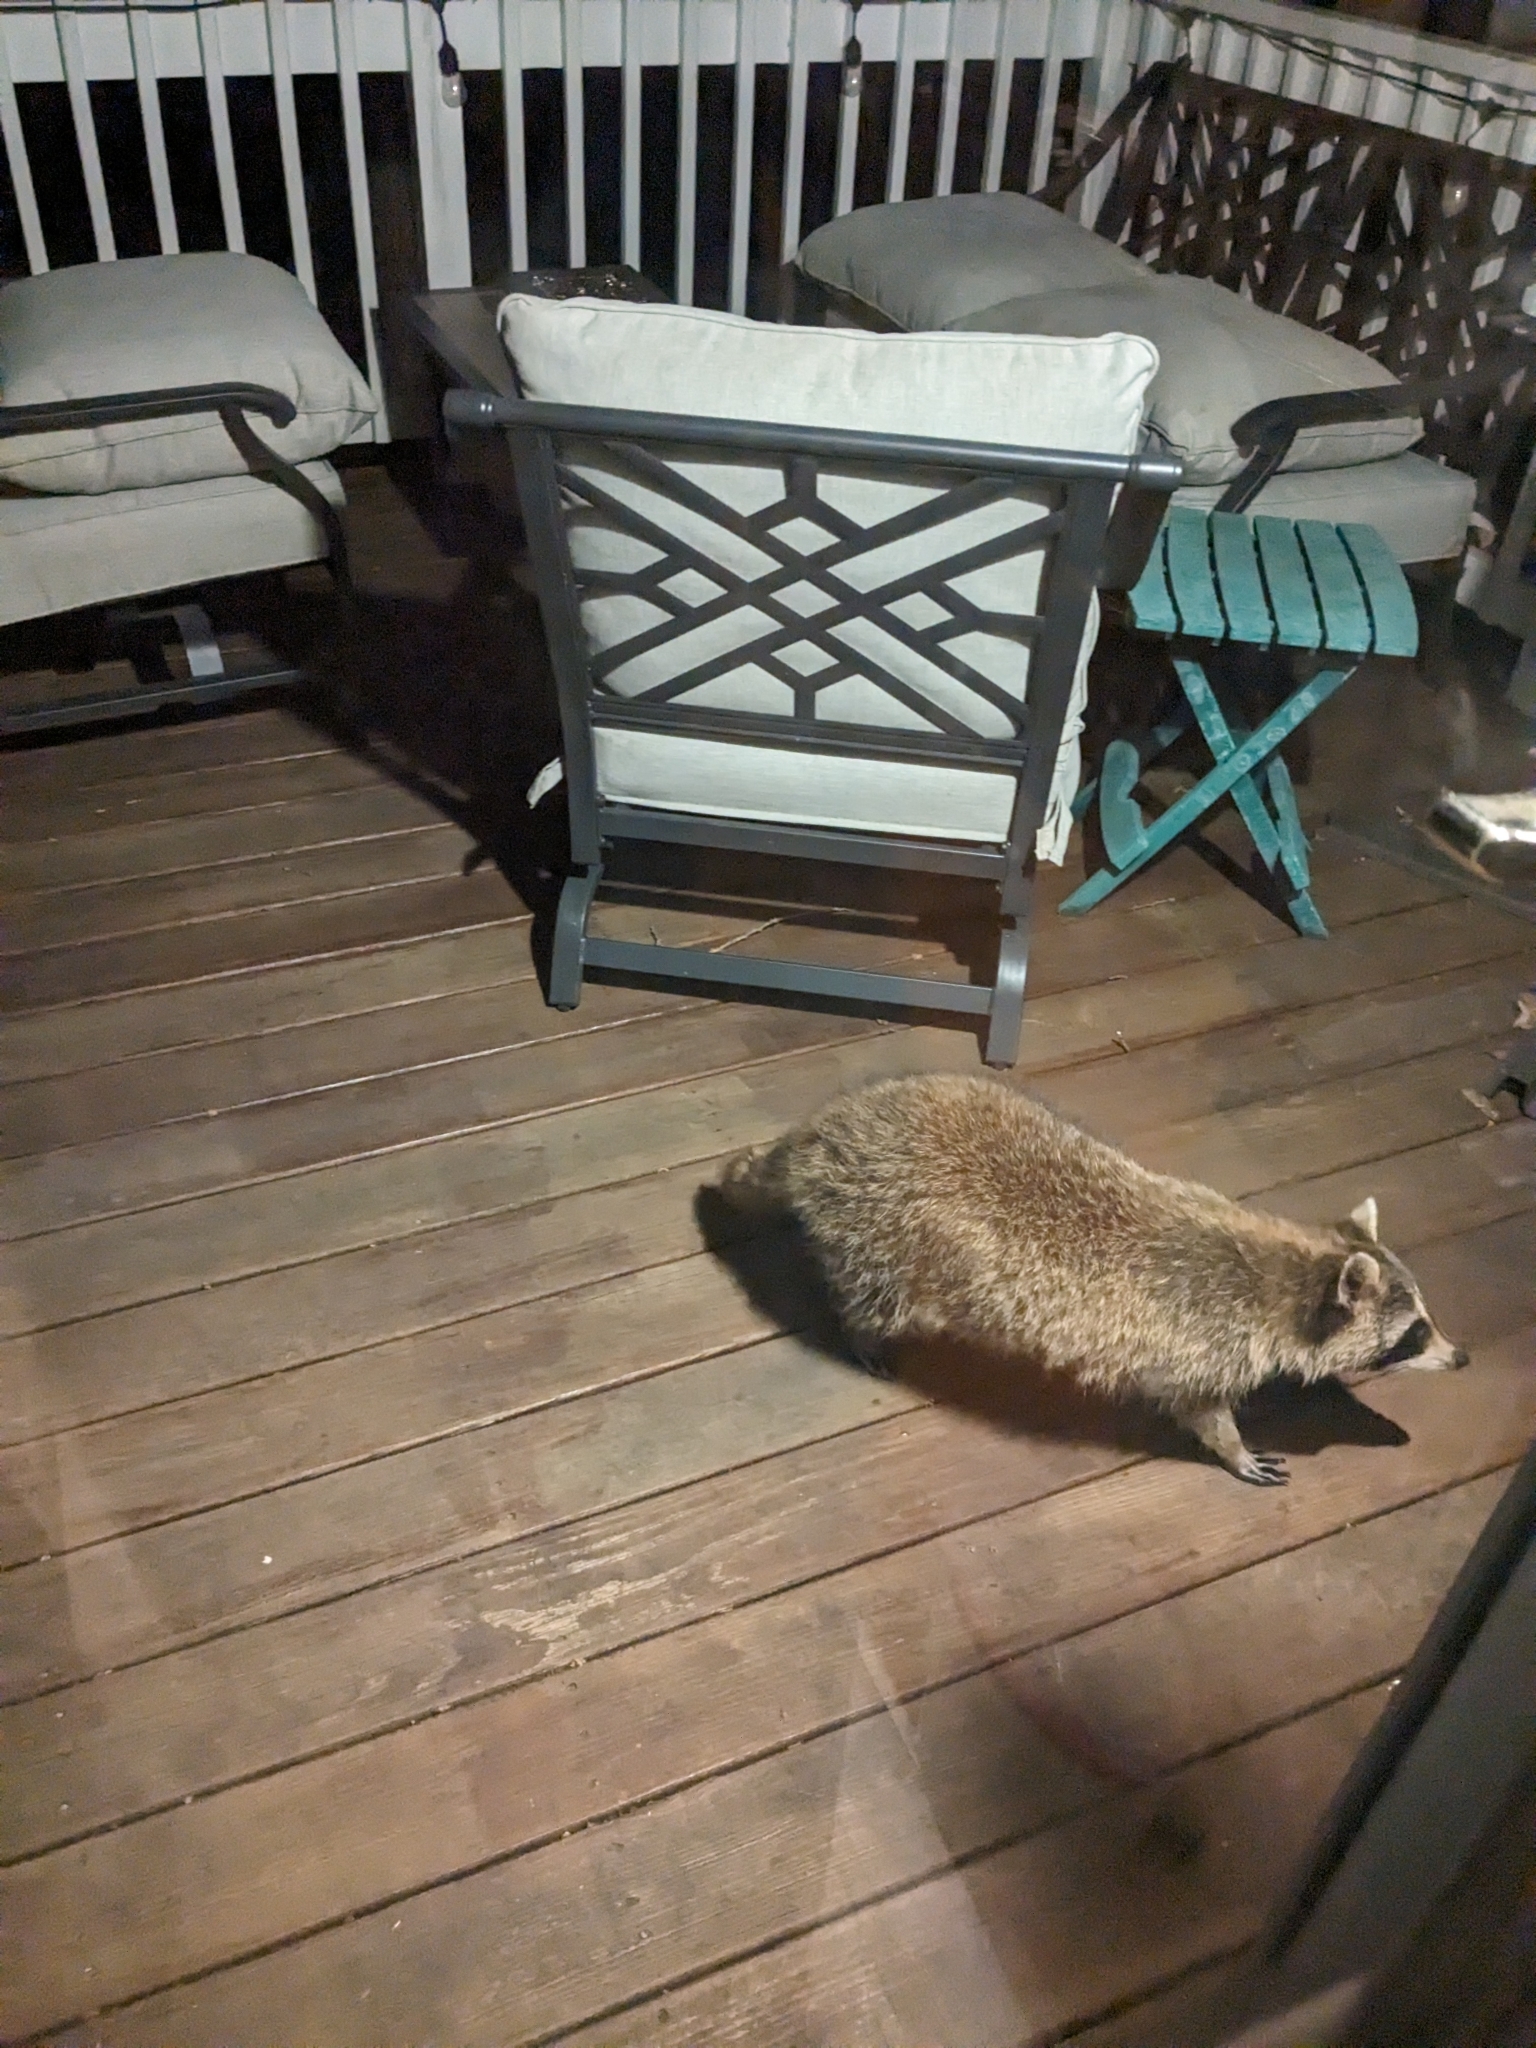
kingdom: Animalia
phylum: Chordata
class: Mammalia
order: Carnivora
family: Procyonidae
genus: Procyon
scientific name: Procyon lotor
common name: Raccoon
